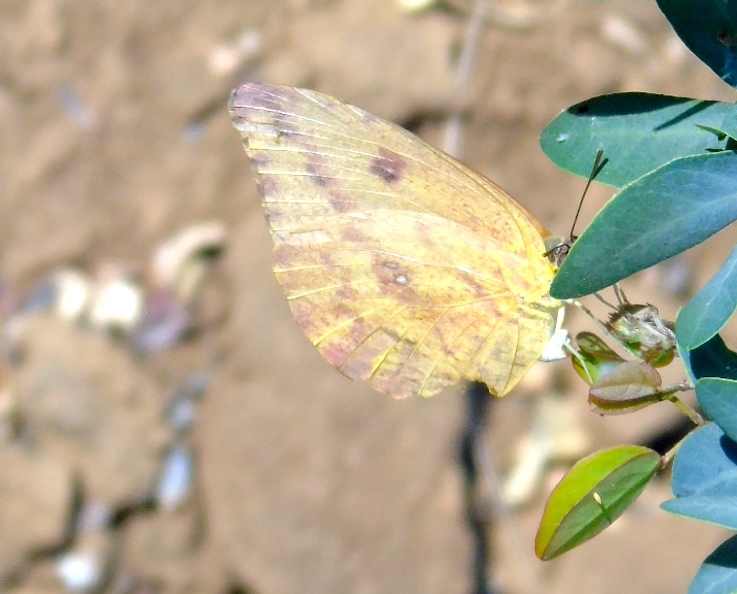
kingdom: Animalia
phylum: Arthropoda
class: Insecta
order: Lepidoptera
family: Pieridae
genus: Phoebis
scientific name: Phoebis agarithe
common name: Large orange sulphur
